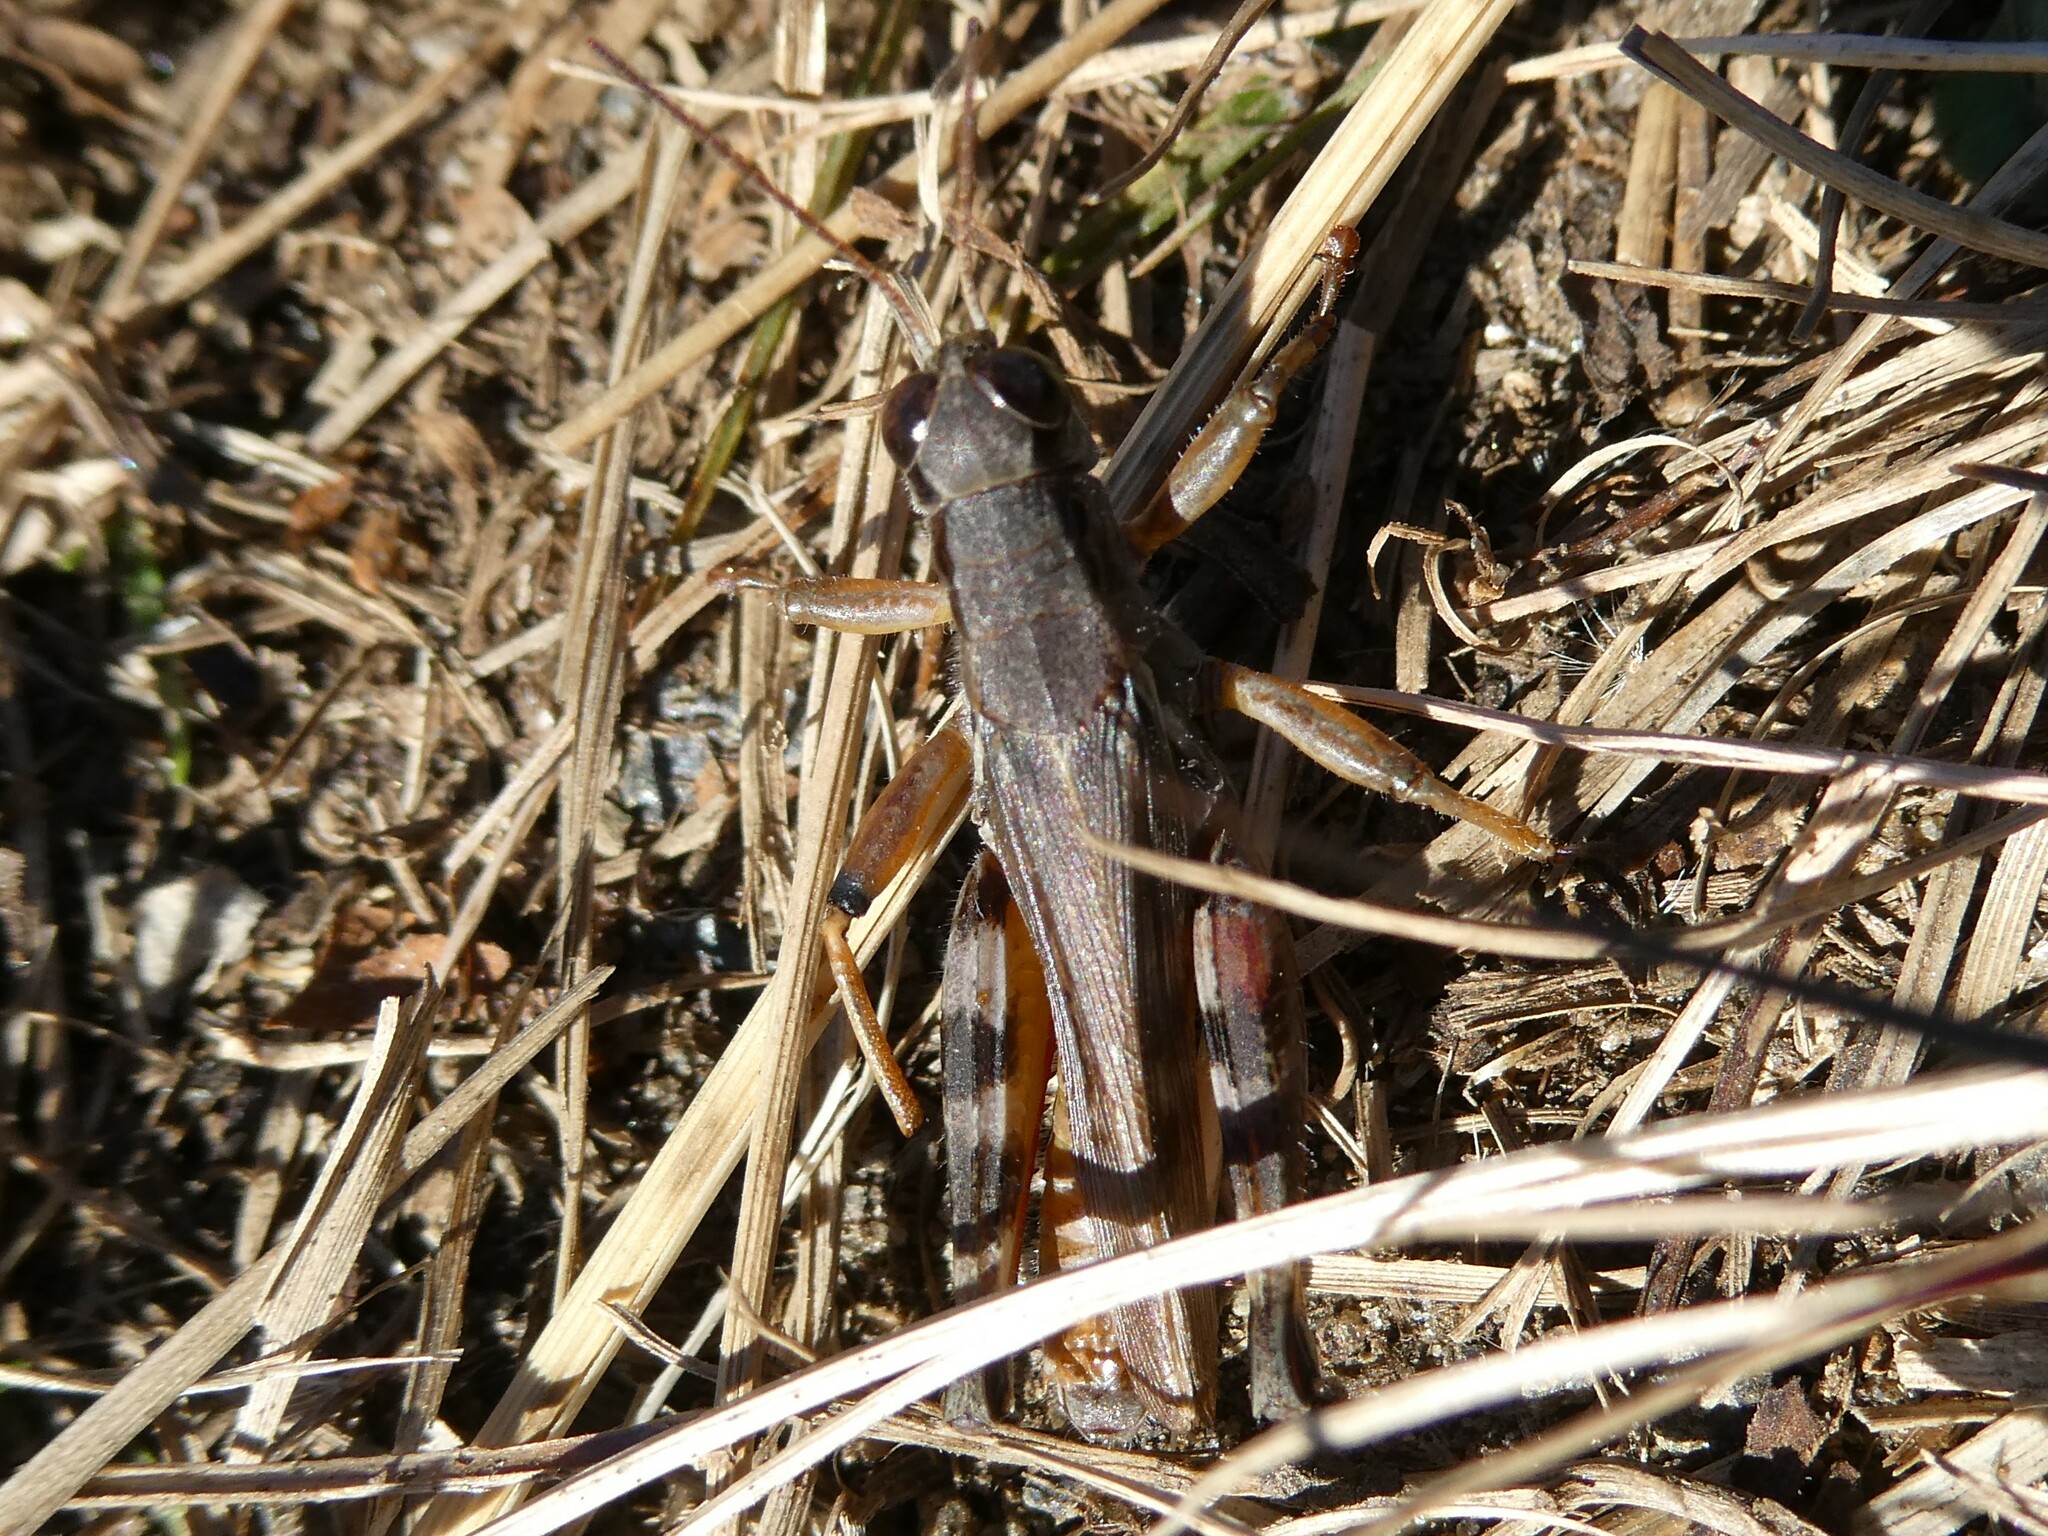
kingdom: Animalia
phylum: Arthropoda
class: Insecta
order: Orthoptera
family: Acrididae
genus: Melanoplus
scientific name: Melanoplus keeleri
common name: Keeler grasshopper
